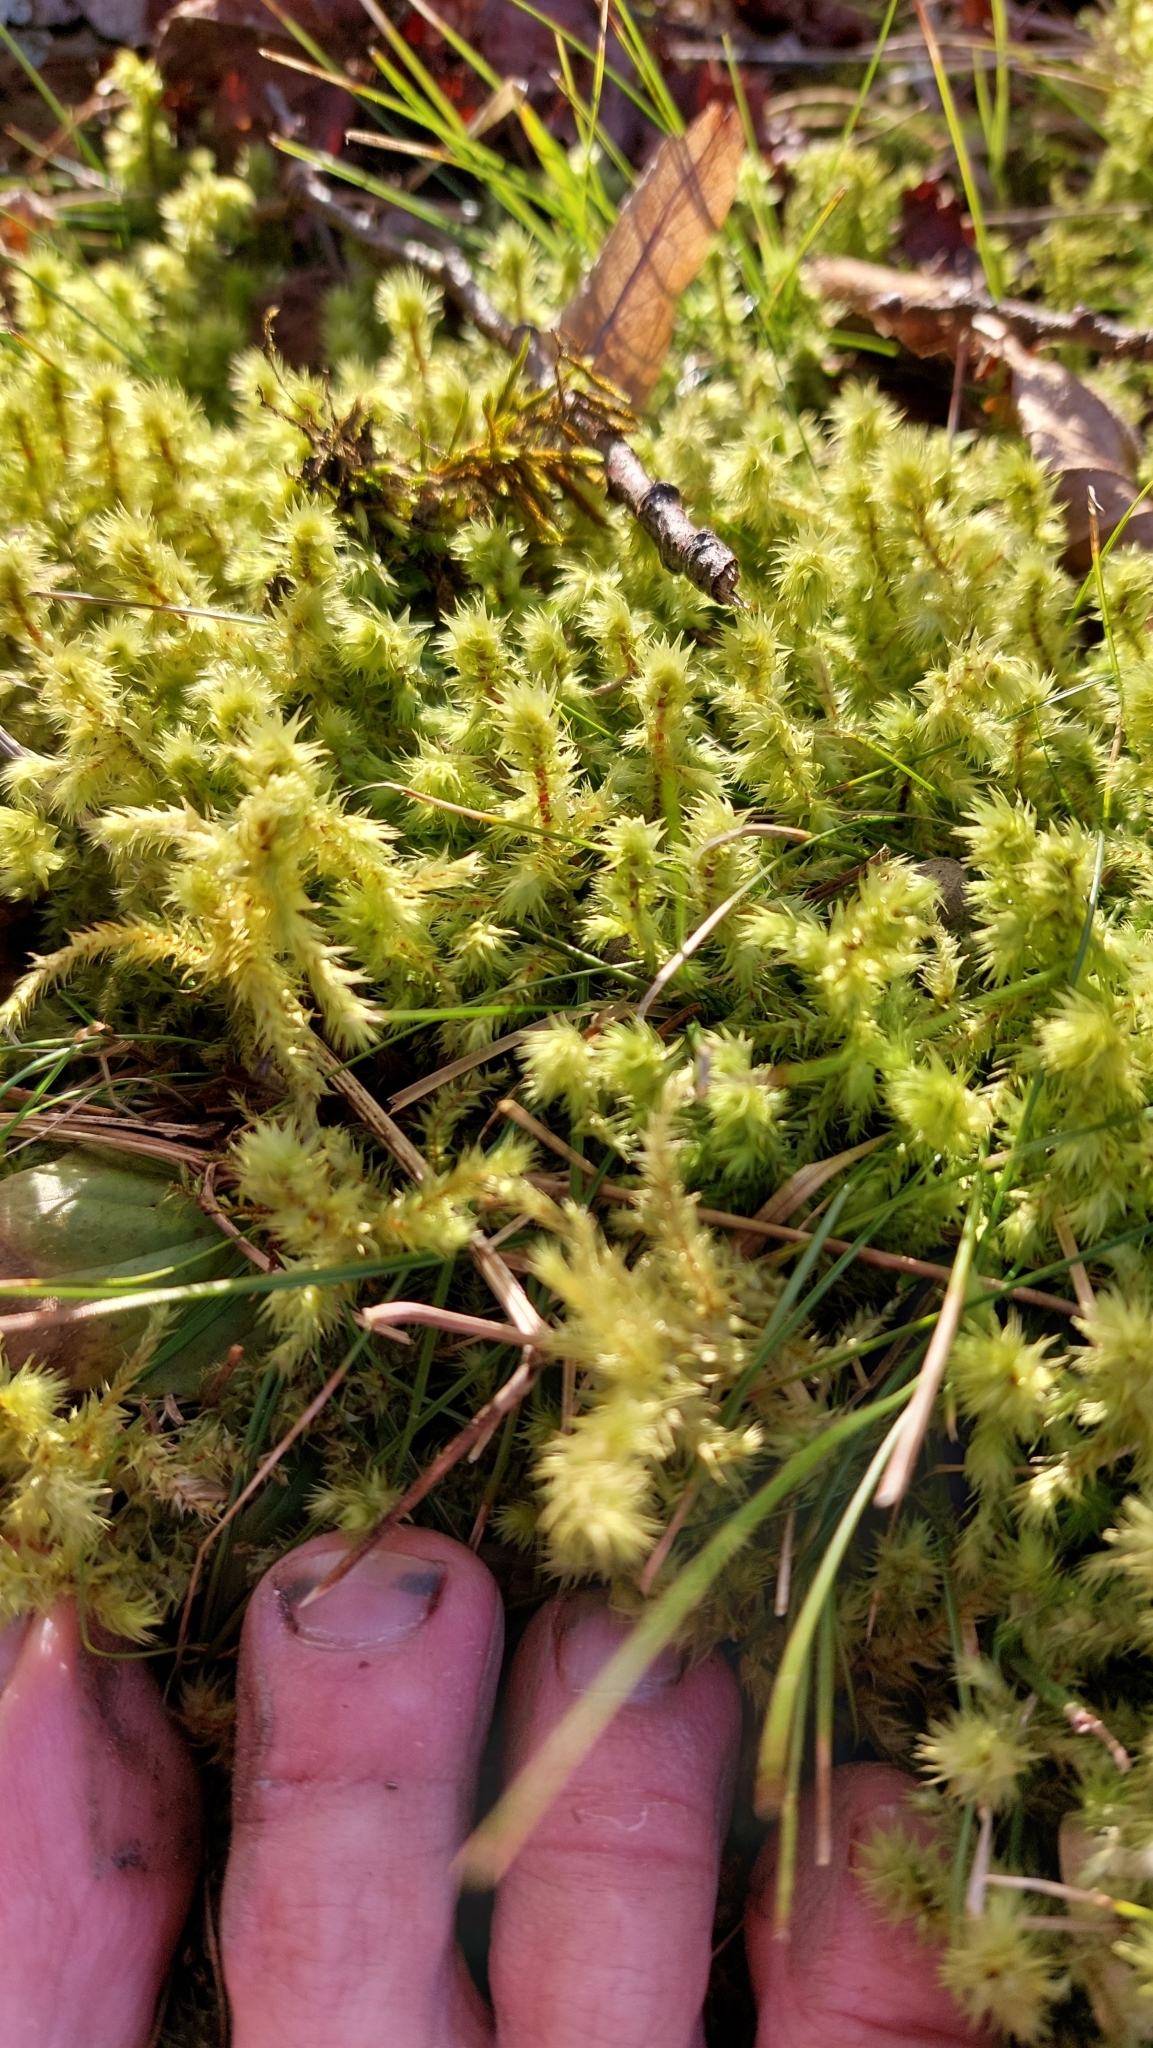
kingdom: Plantae
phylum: Bryophyta
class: Bryopsida
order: Hypnales
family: Hylocomiaceae
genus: Hylocomiadelphus
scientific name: Hylocomiadelphus triquetrus
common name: Rough goose neck moss
